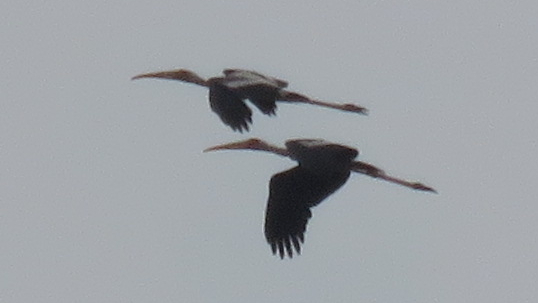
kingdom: Animalia
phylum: Chordata
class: Aves
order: Ciconiiformes
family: Ciconiidae
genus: Mycteria
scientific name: Mycteria leucocephala
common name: Painted stork
